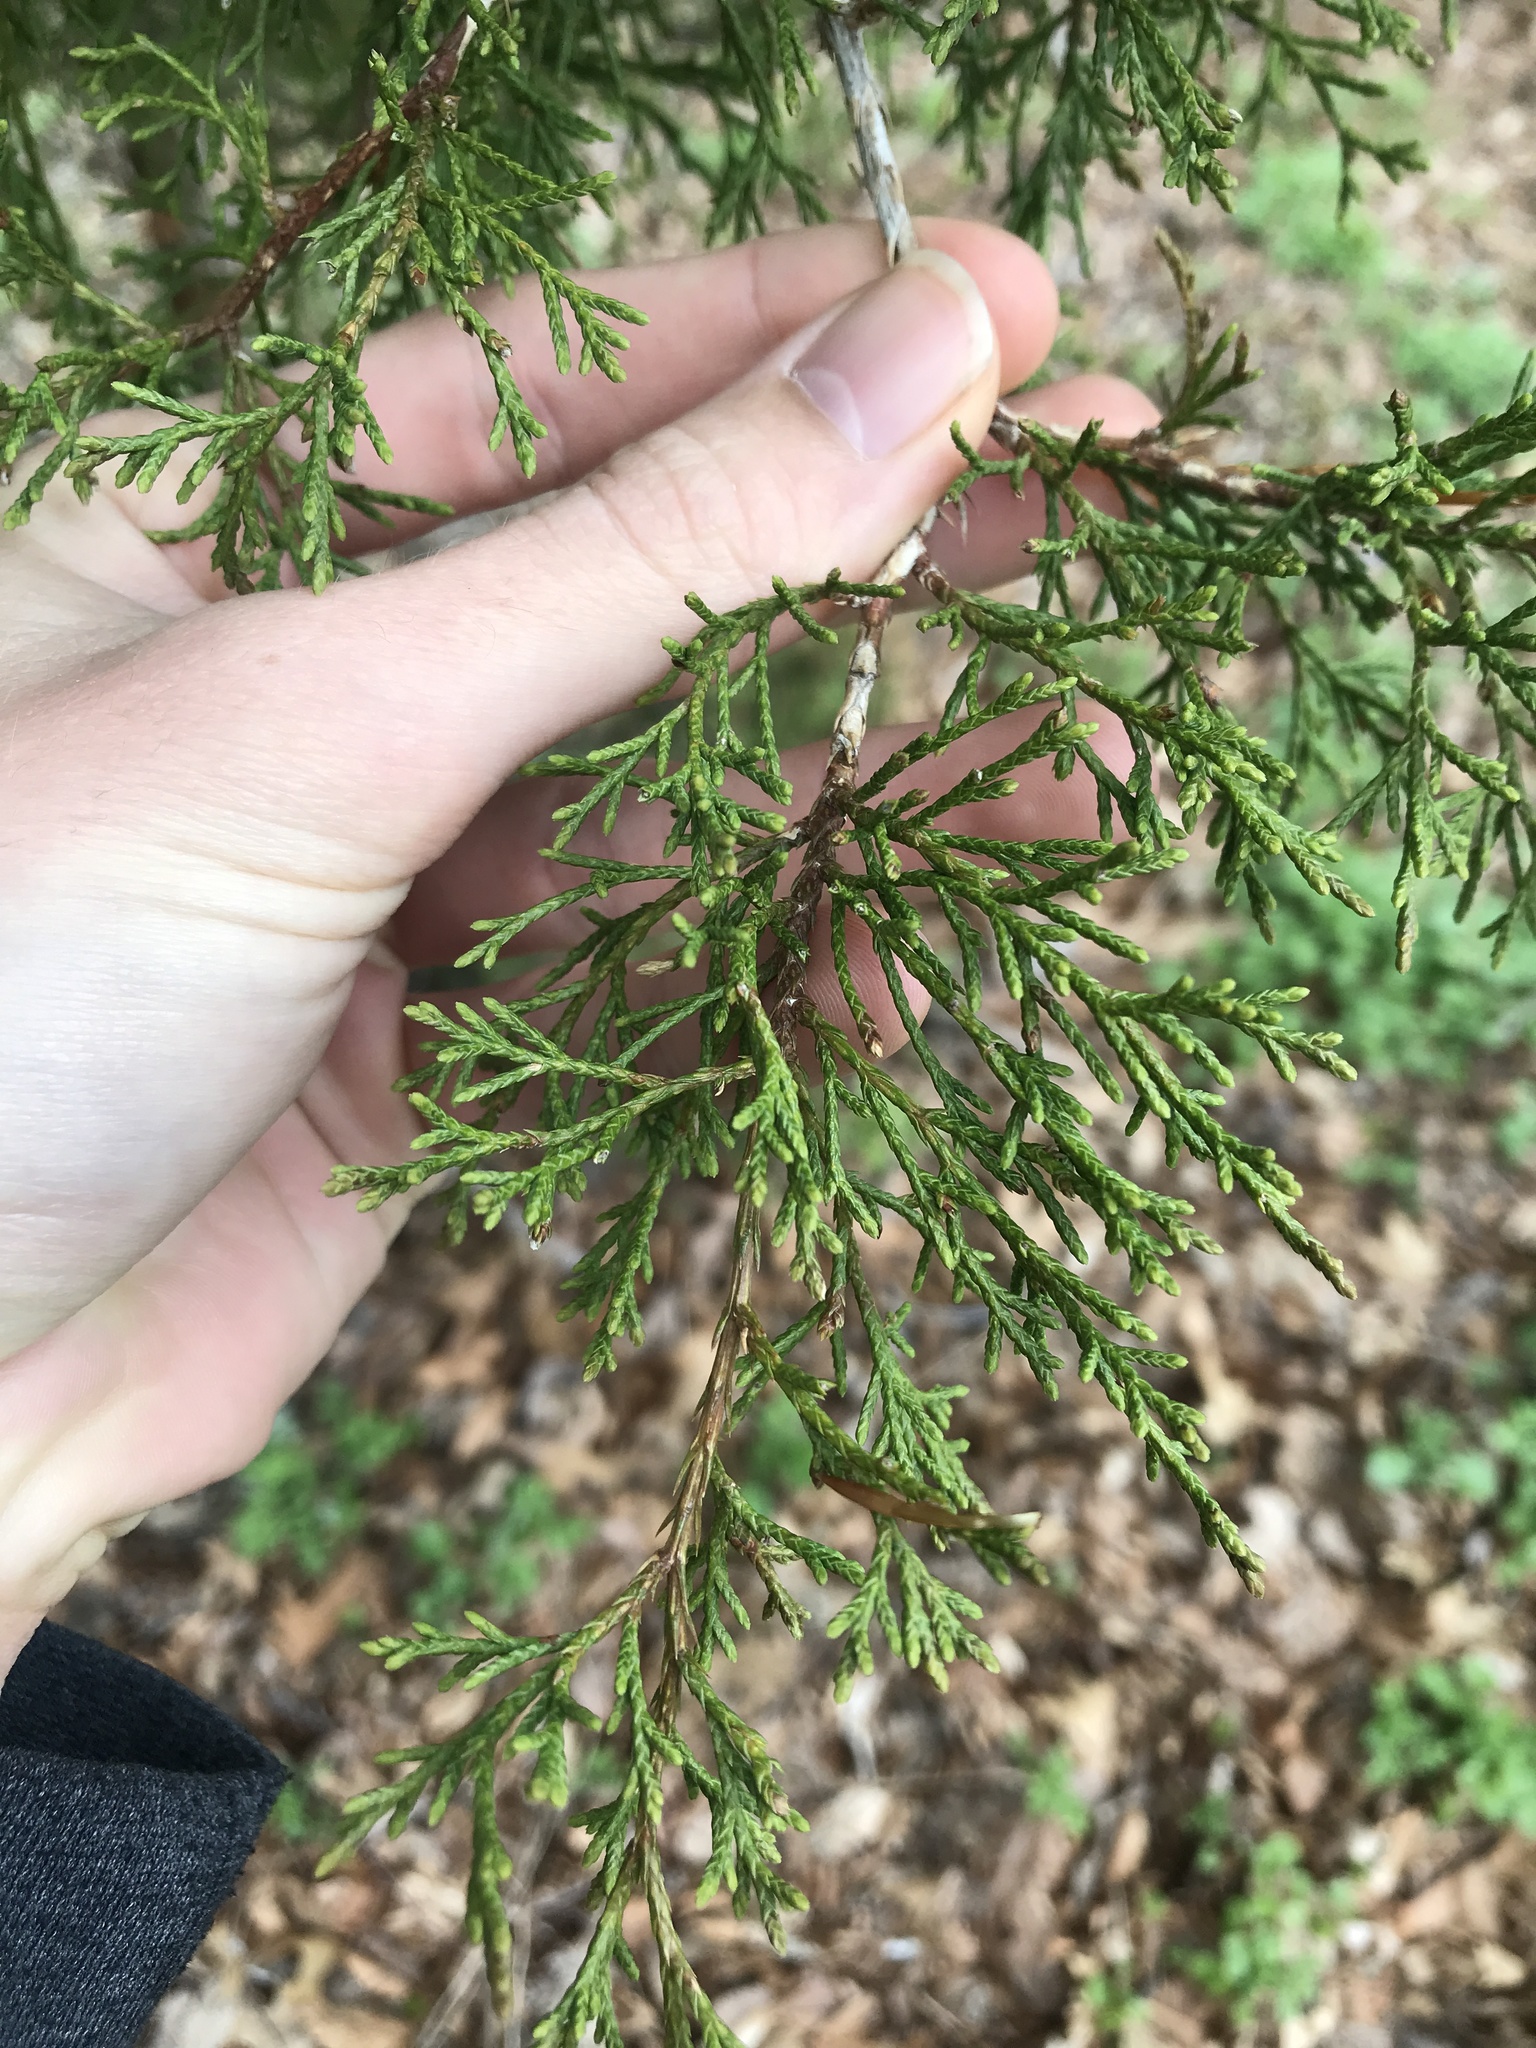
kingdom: Plantae
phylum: Tracheophyta
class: Pinopsida
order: Pinales
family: Cupressaceae
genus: Juniperus
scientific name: Juniperus virginiana
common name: Red juniper
